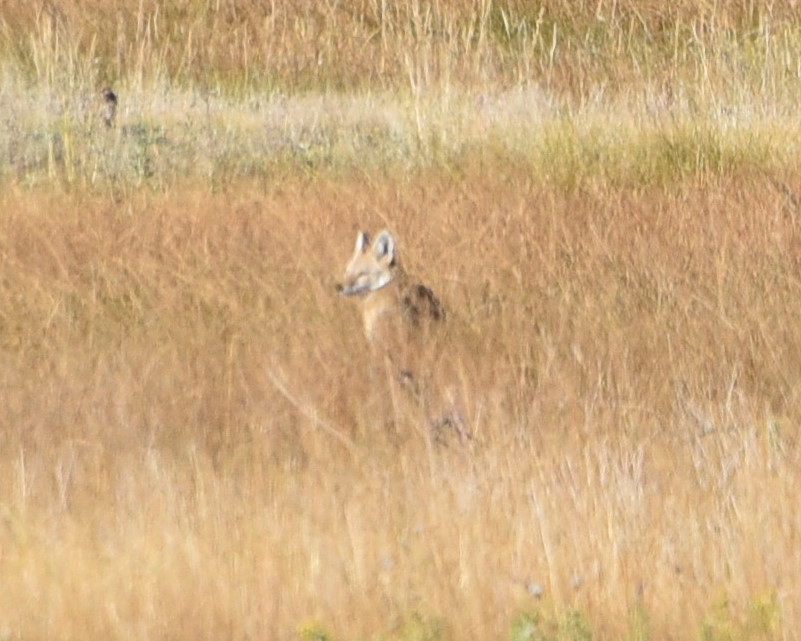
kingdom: Animalia
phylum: Chordata
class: Mammalia
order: Carnivora
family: Canidae
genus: Canis
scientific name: Canis latrans
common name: Coyote
